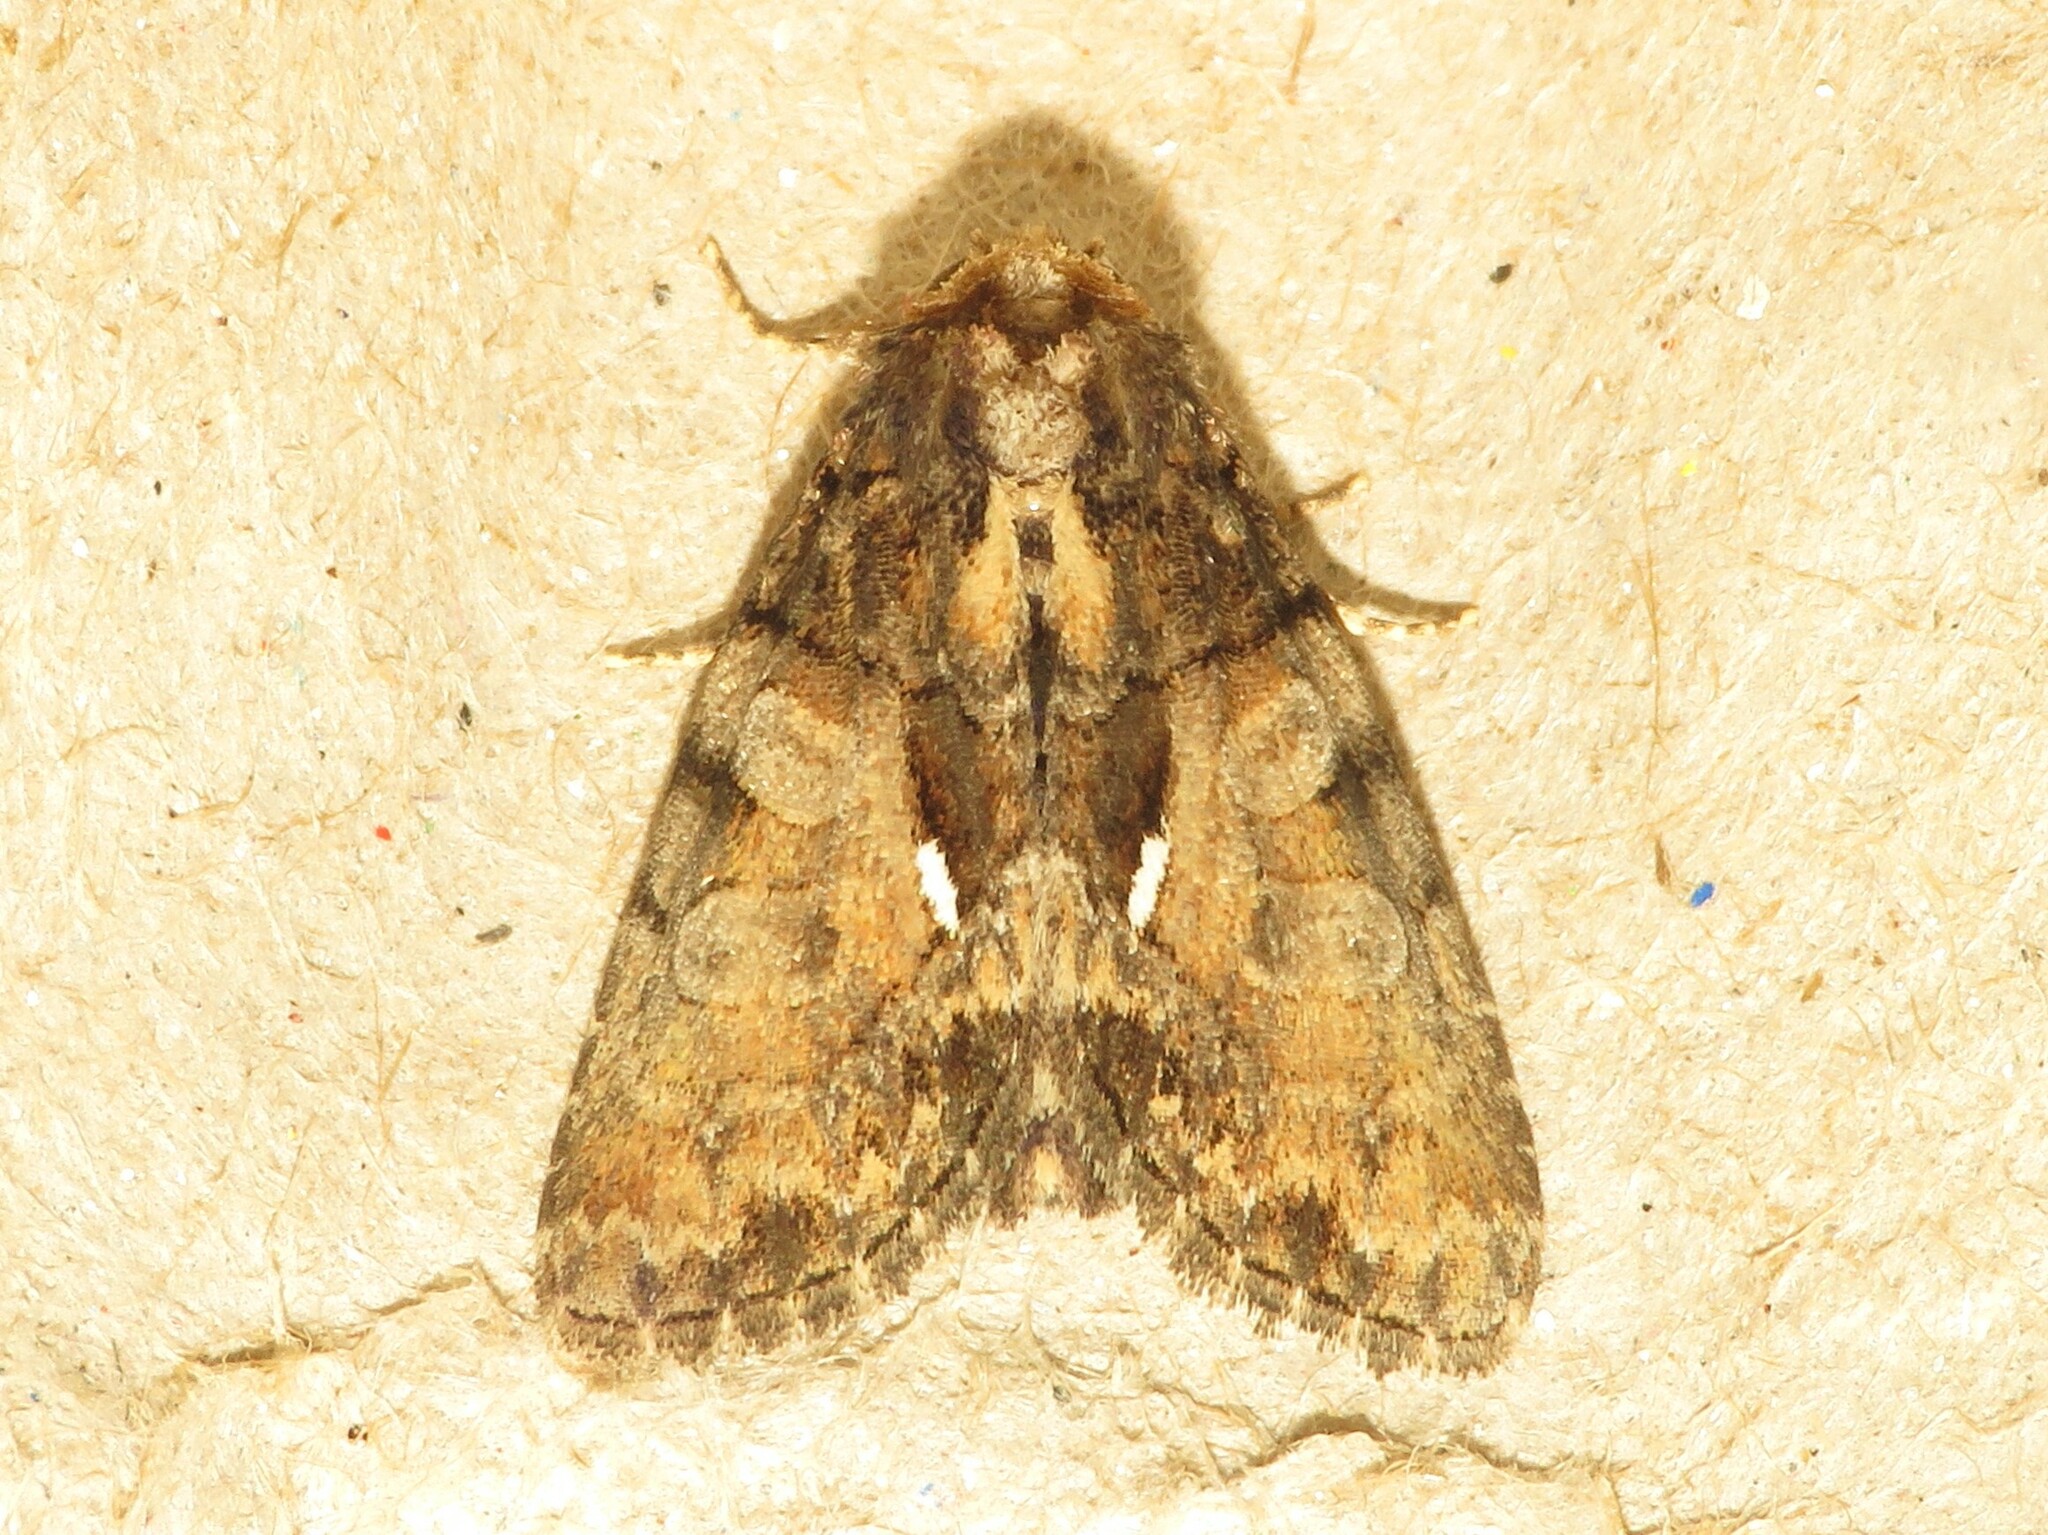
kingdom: Animalia
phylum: Arthropoda
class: Insecta
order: Lepidoptera
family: Noctuidae
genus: Chytonix
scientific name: Chytonix palliatricula
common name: Cloaked marvel
